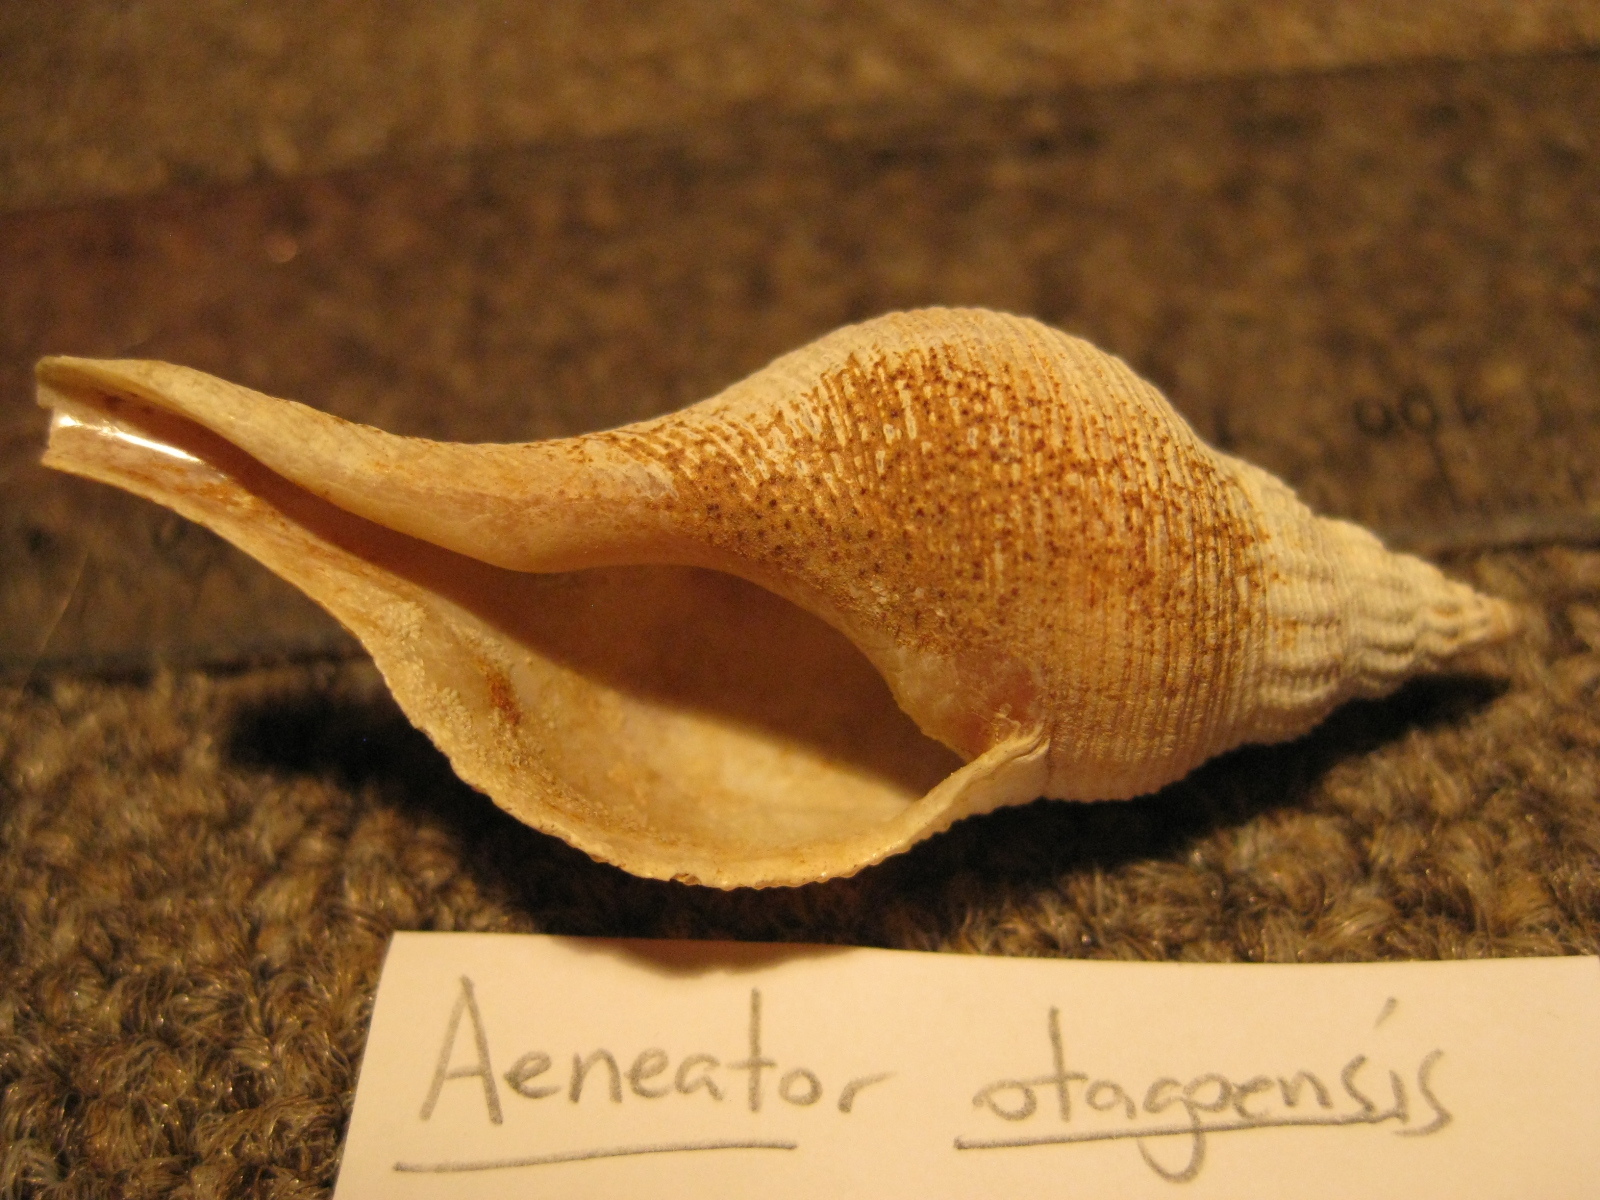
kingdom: Animalia
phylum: Mollusca
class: Gastropoda
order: Neogastropoda
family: Tudiclidae
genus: Aeneator
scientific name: Aeneator otagoensis
